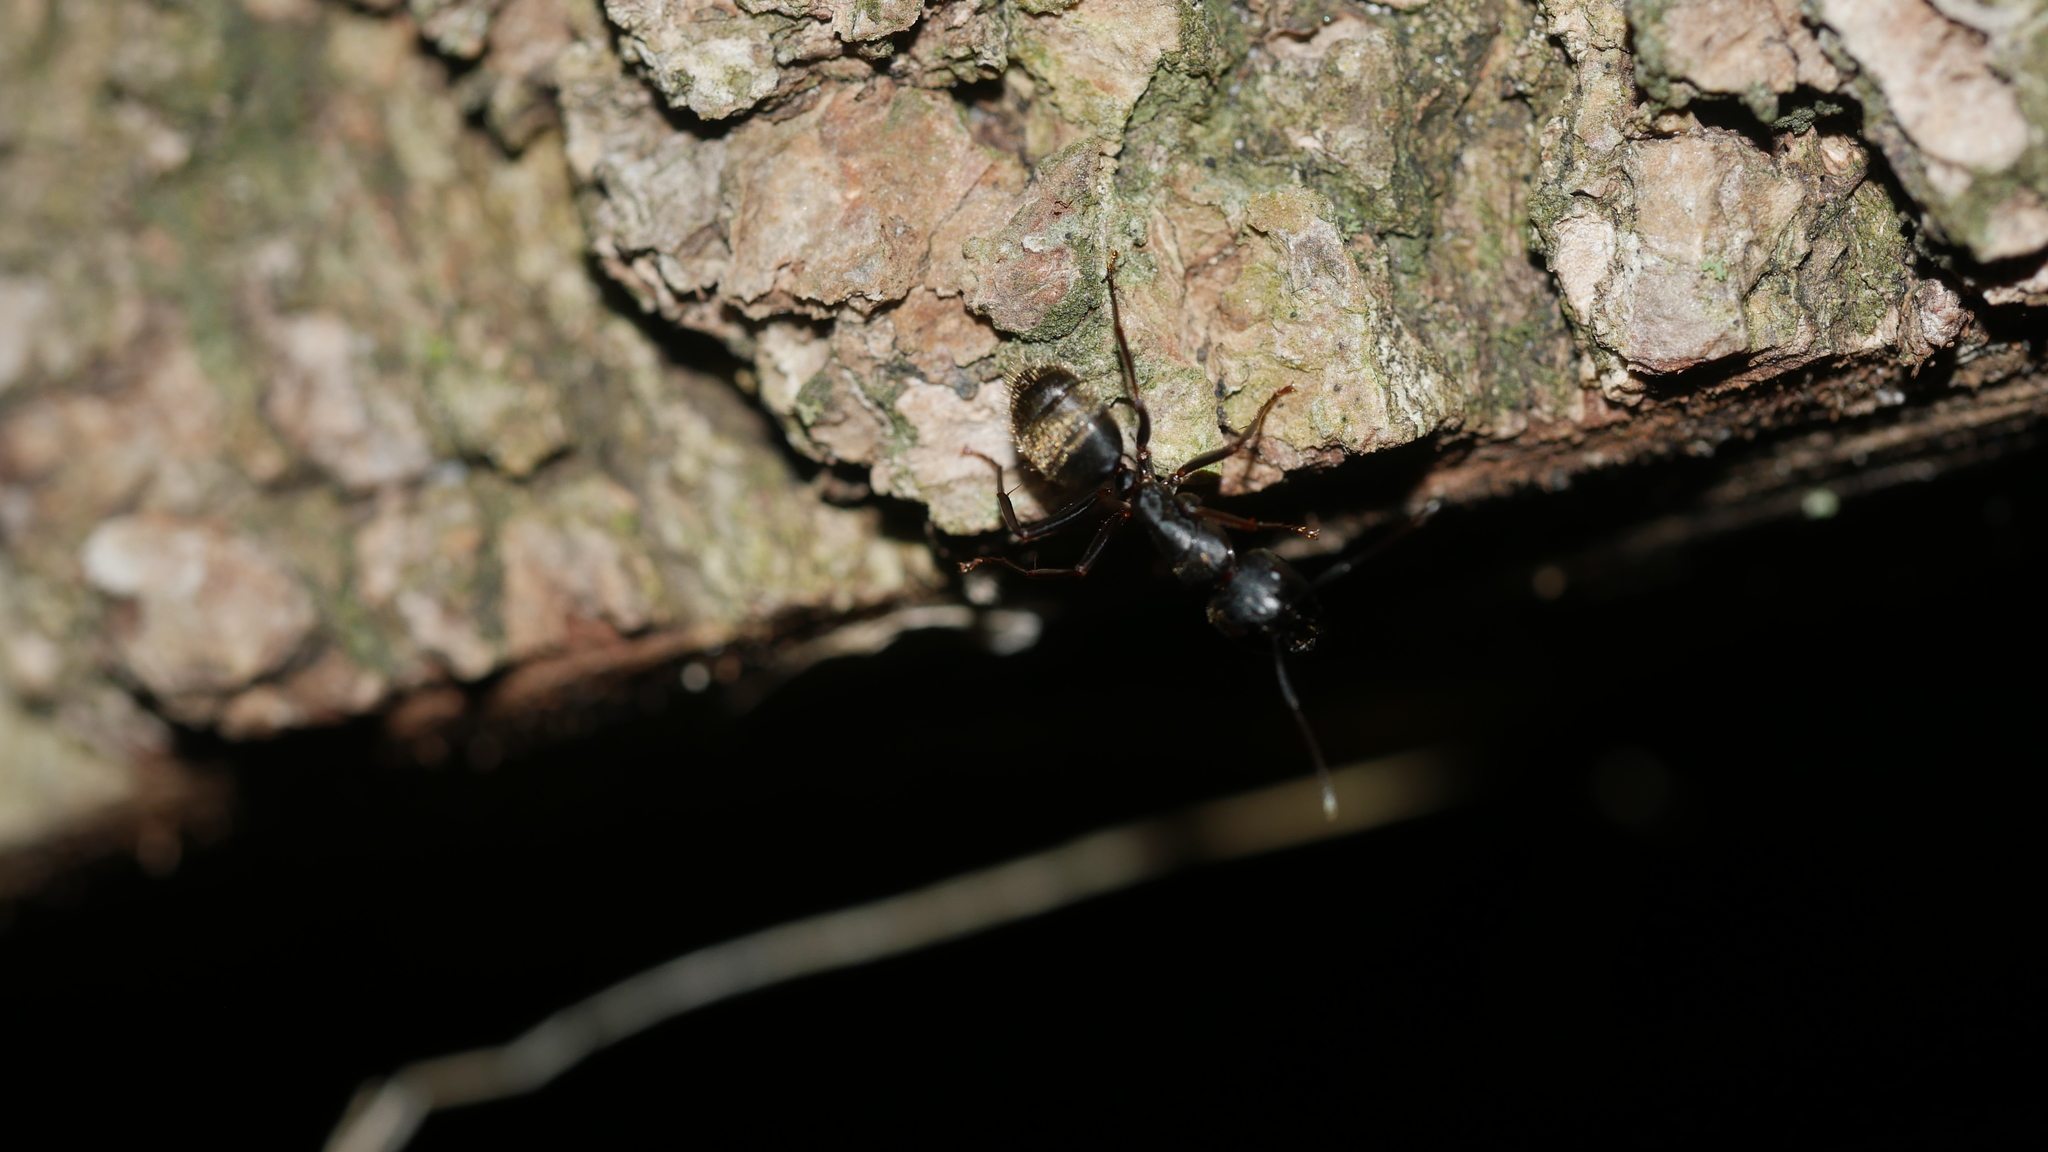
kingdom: Animalia
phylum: Arthropoda
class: Insecta
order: Hymenoptera
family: Formicidae
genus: Camponotus
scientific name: Camponotus pennsylvanicus
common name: Black carpenter ant
